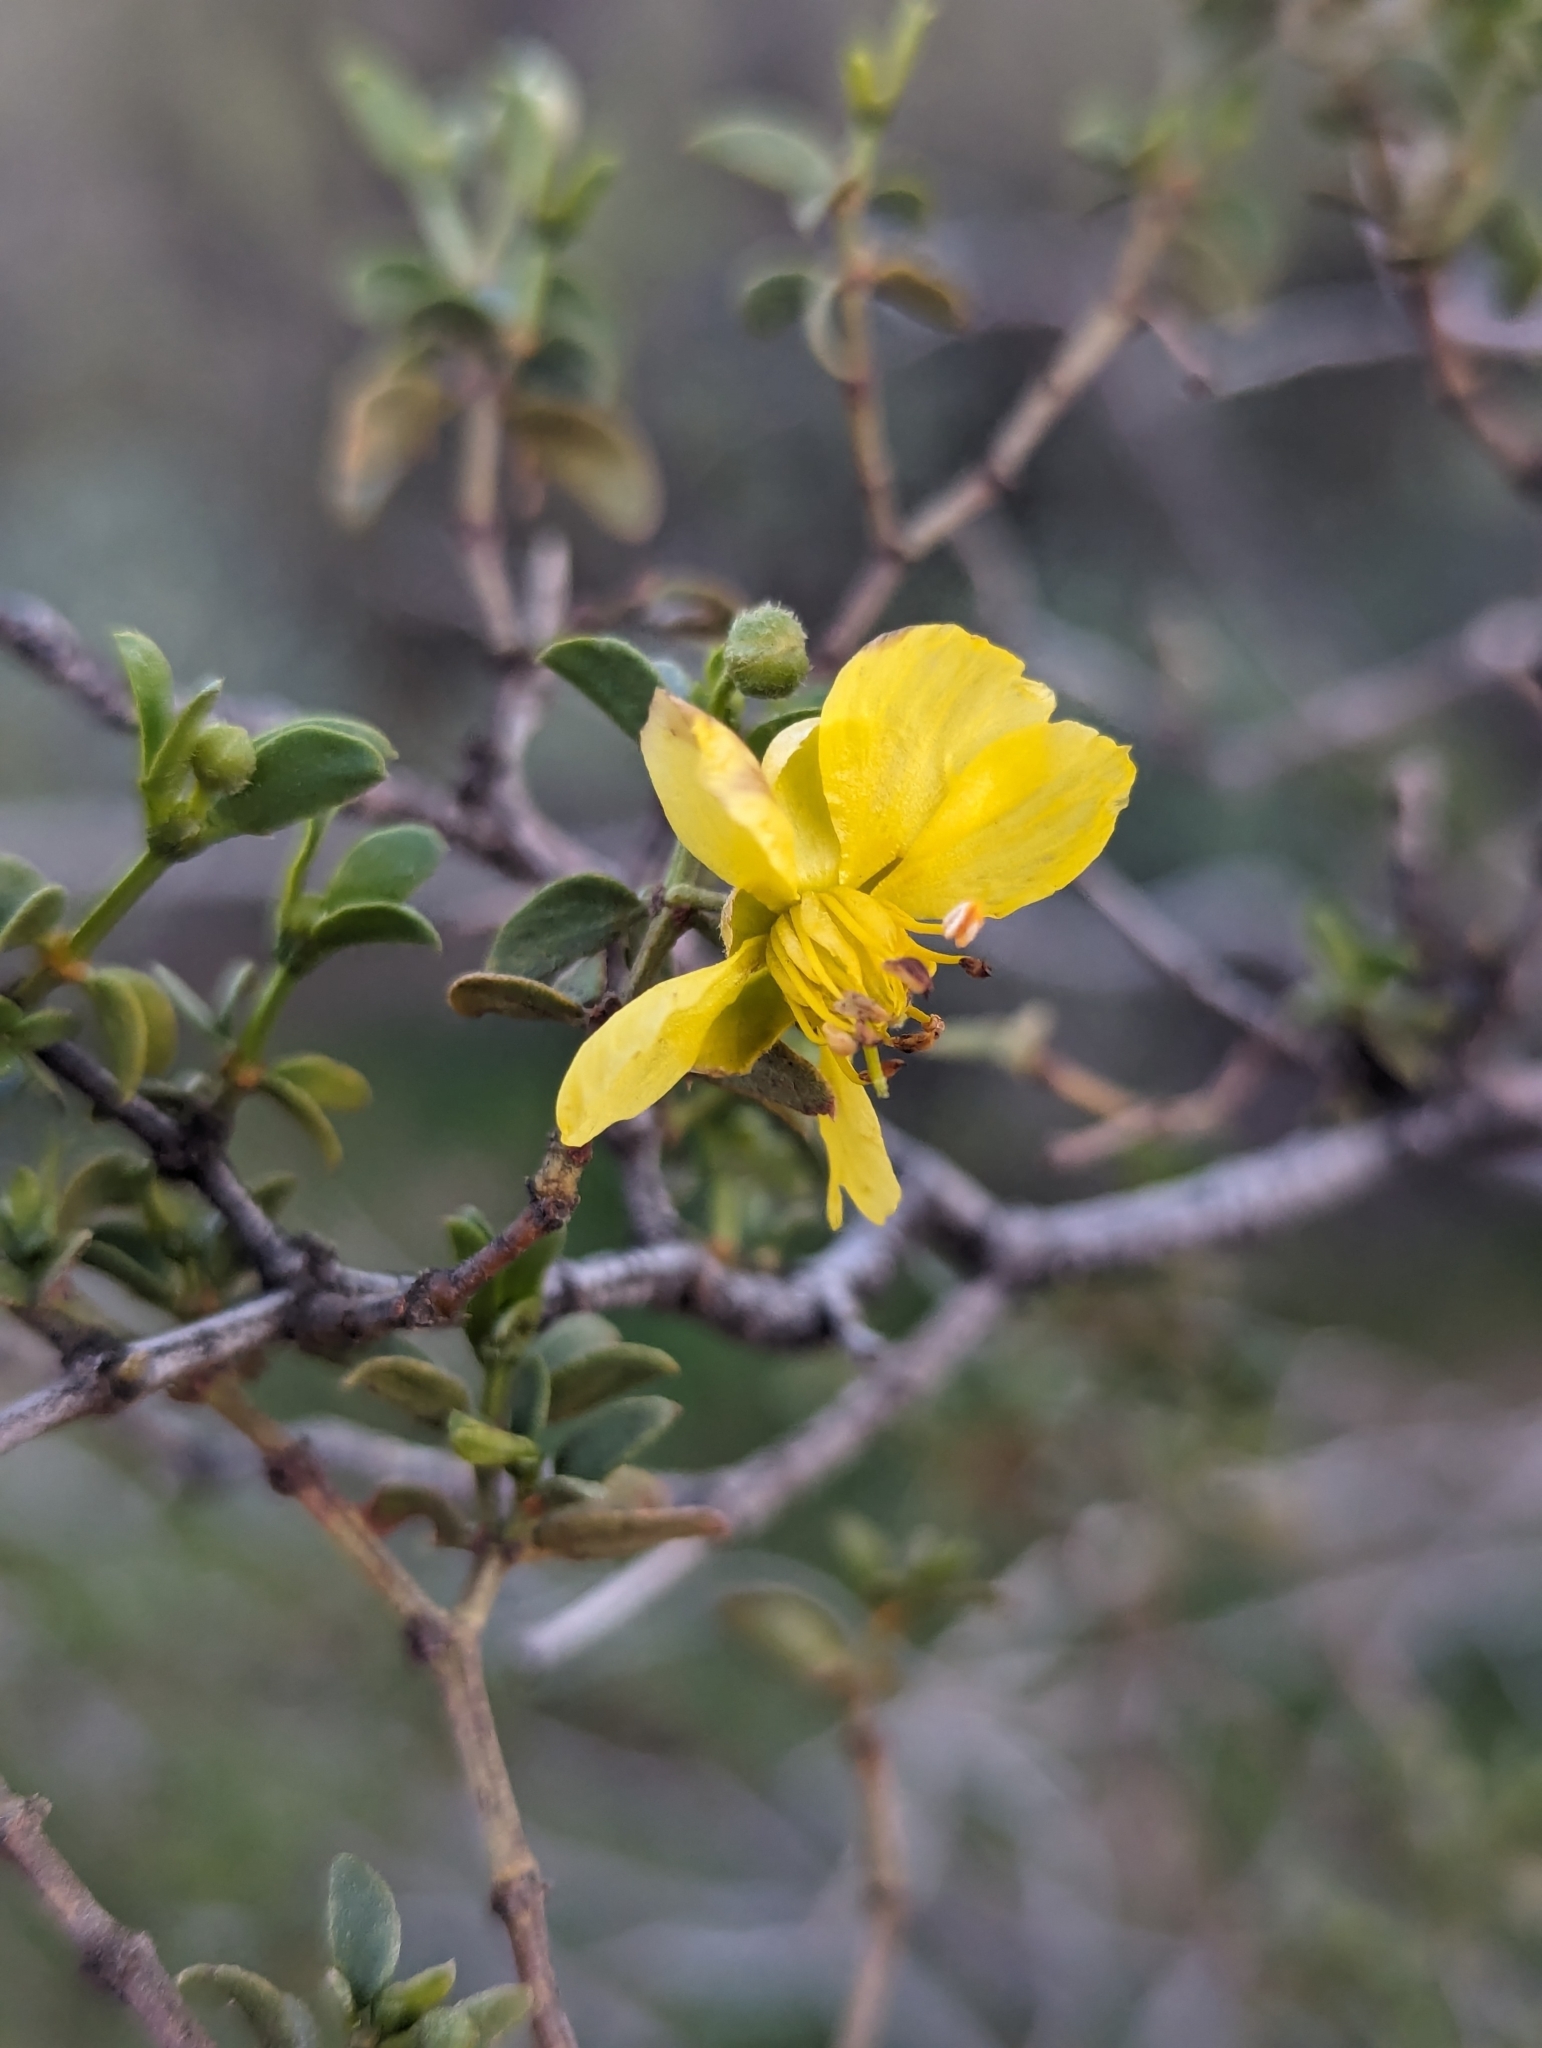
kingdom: Plantae
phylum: Tracheophyta
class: Magnoliopsida
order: Zygophyllales
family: Zygophyllaceae
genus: Larrea
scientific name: Larrea tridentata
